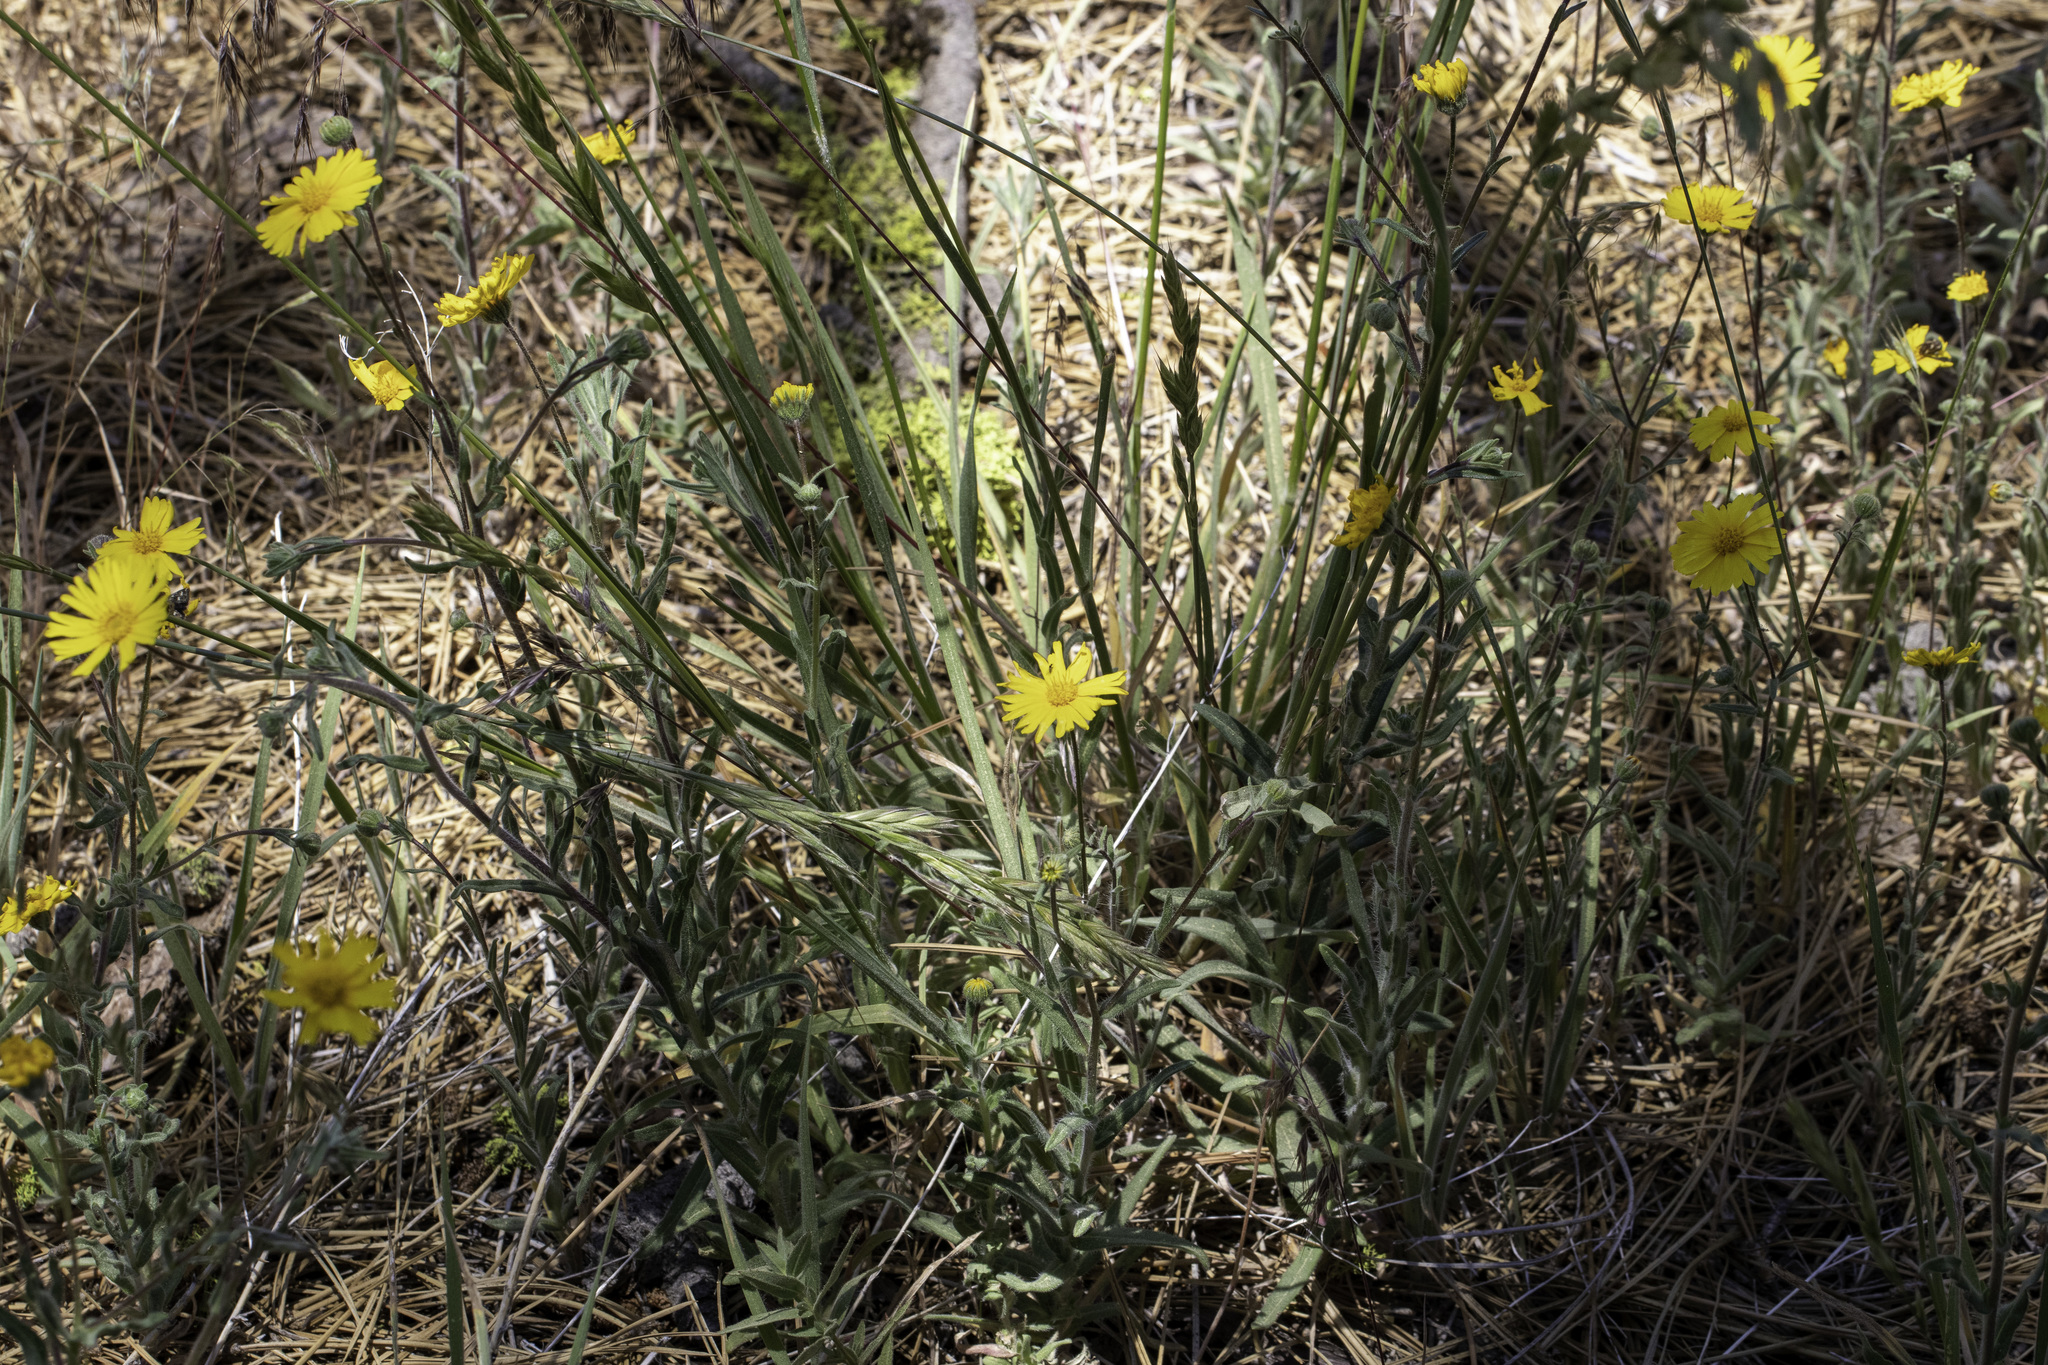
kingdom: Plantae
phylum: Tracheophyta
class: Magnoliopsida
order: Asterales
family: Asteraceae
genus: Madia
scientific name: Madia elegans
